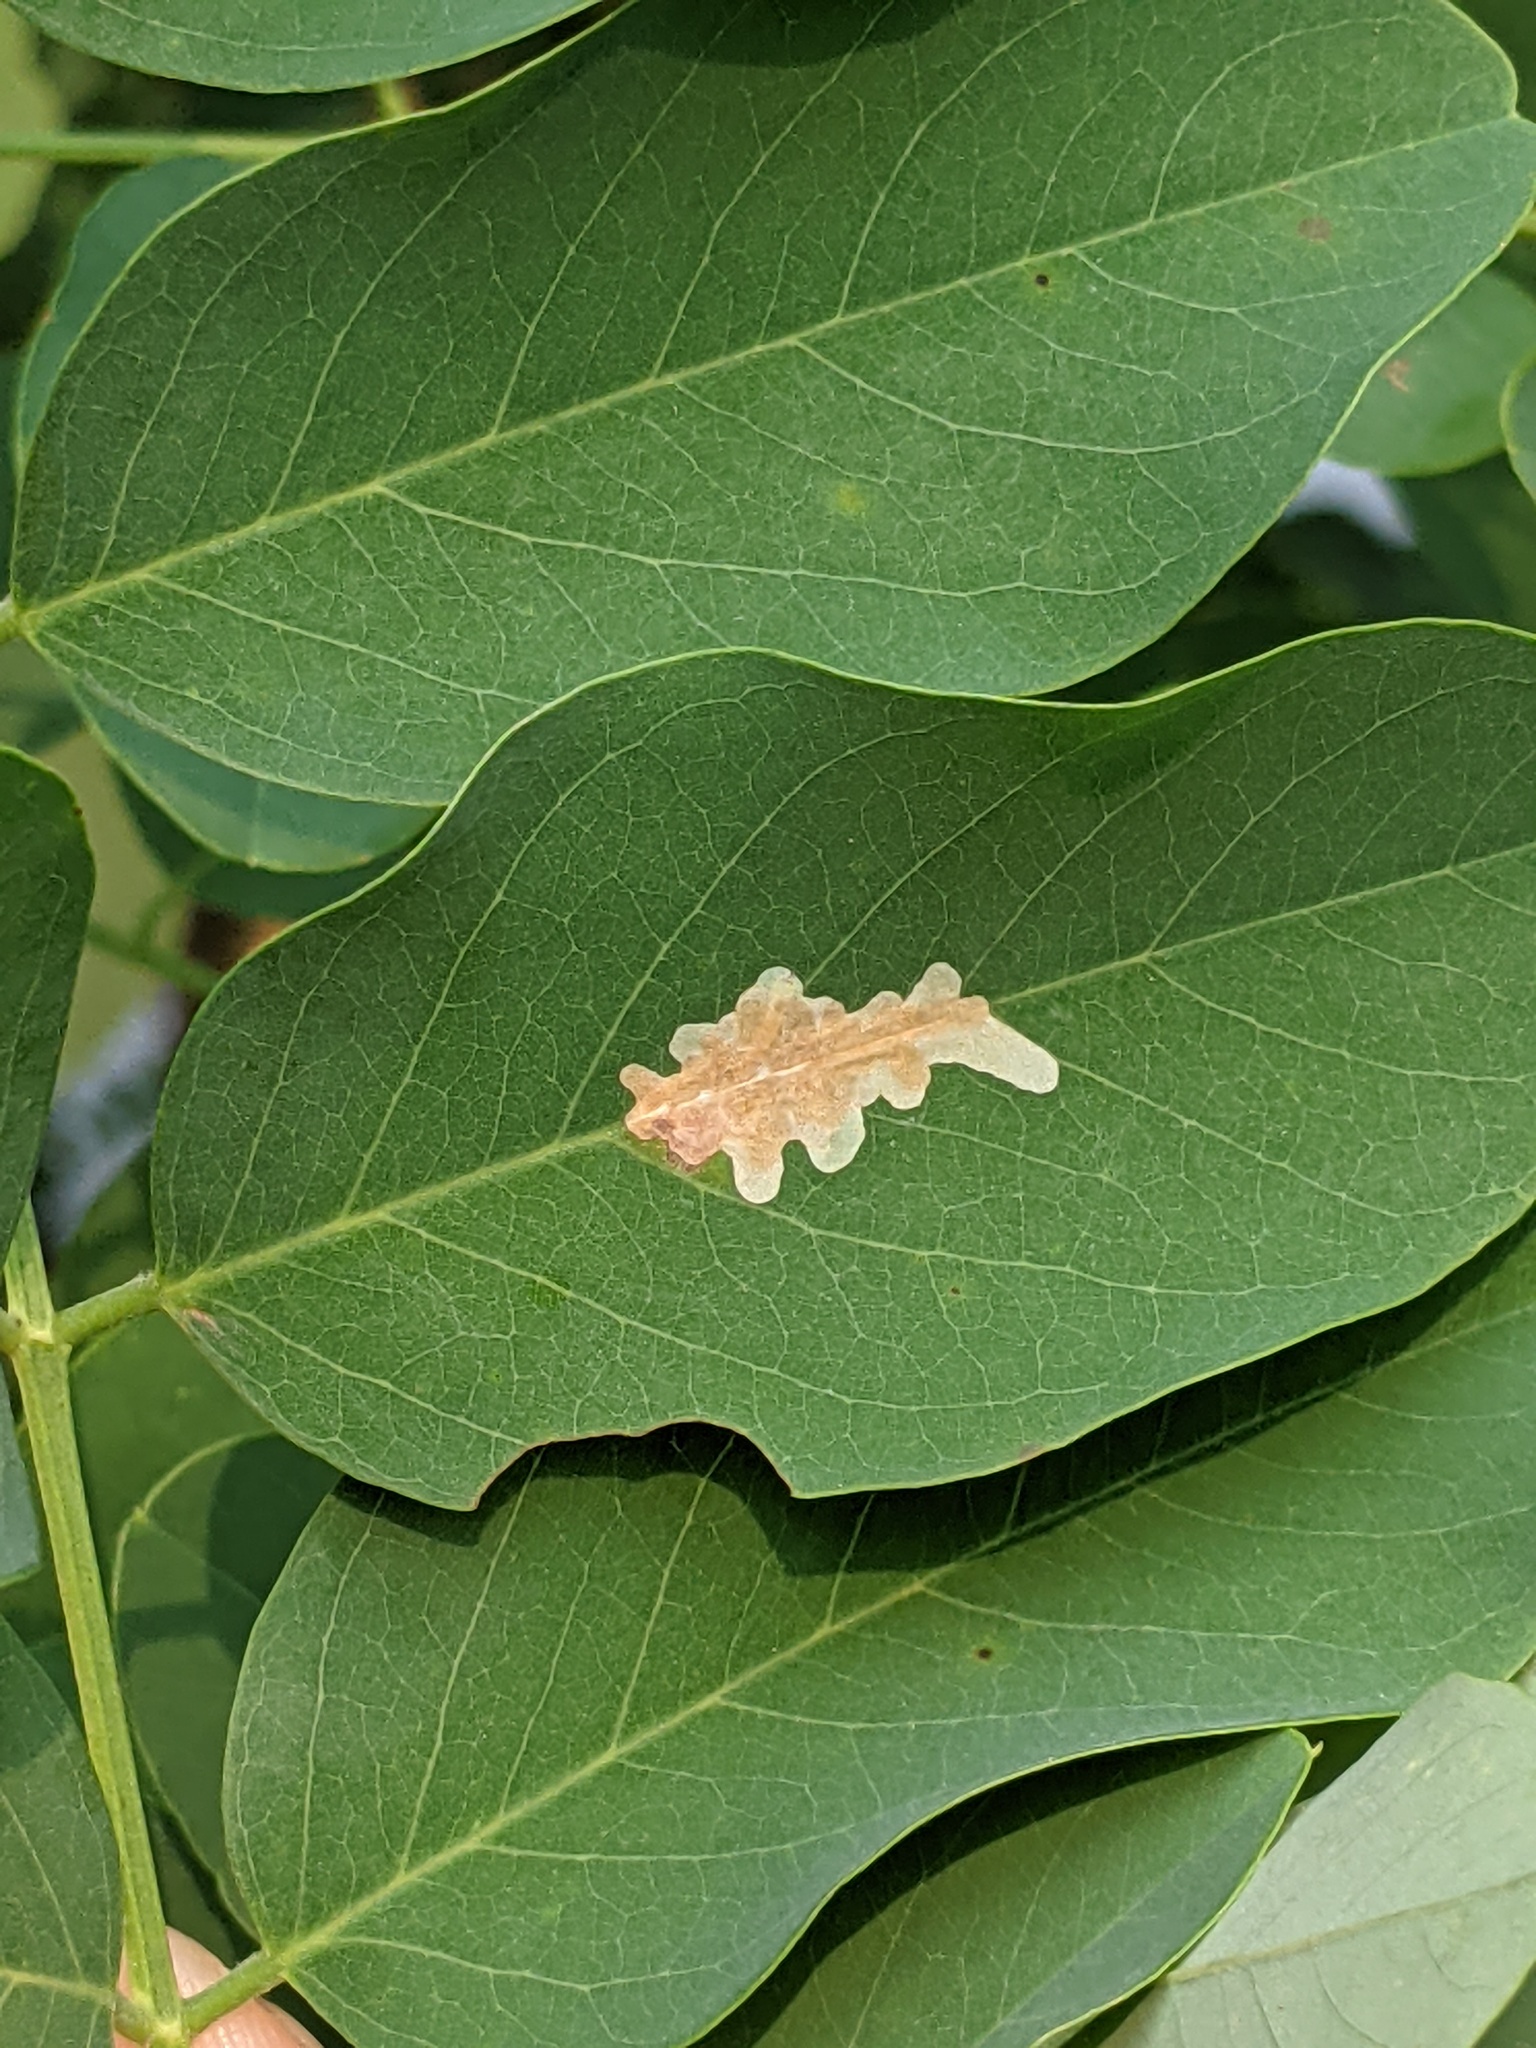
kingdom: Animalia
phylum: Arthropoda
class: Insecta
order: Lepidoptera
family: Gracillariidae
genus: Parectopa
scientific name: Parectopa robiniella
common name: Locust digitate leafminer
